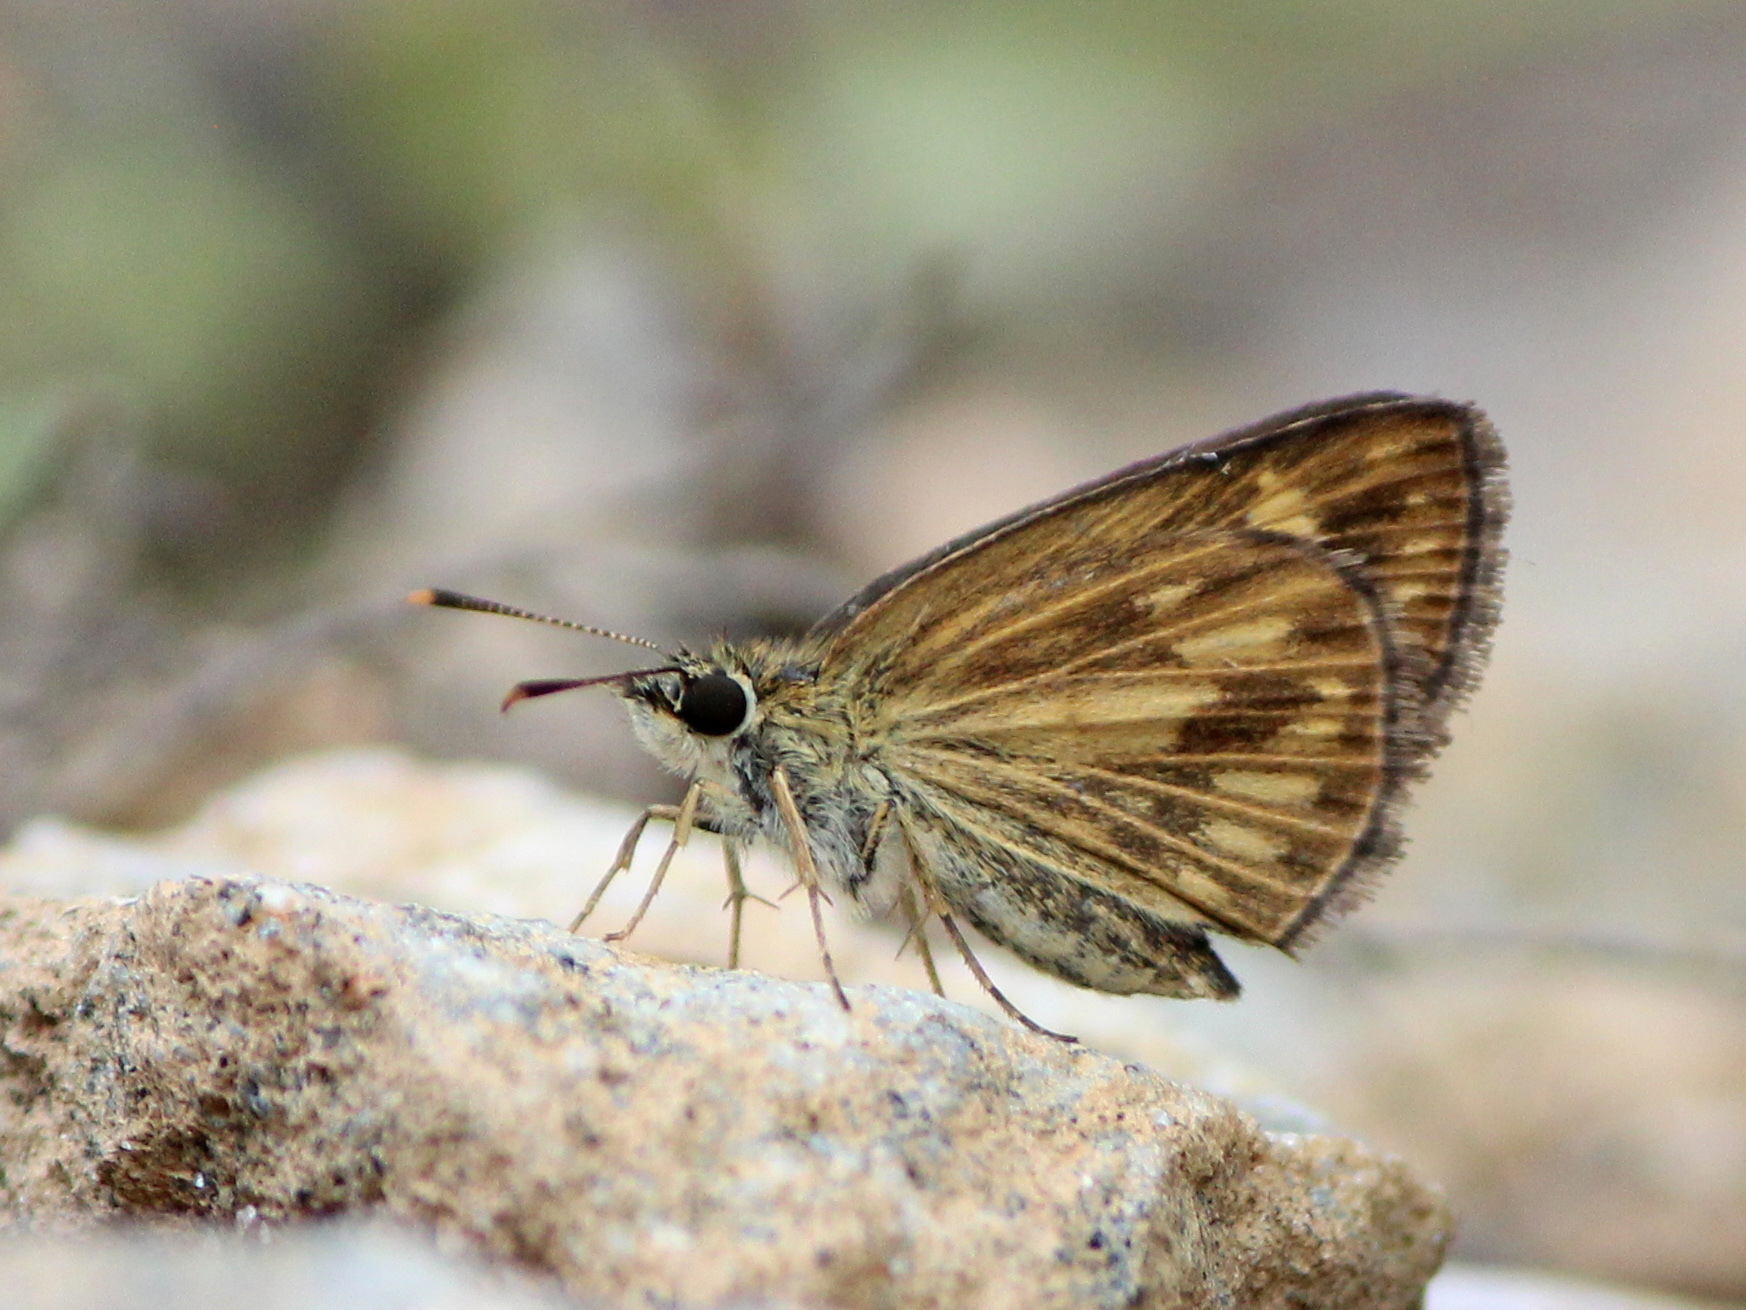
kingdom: Animalia
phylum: Arthropoda
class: Insecta
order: Lepidoptera
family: Hesperiidae
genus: Baracus
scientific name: Baracus vittatus
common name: Hedge-hopper
